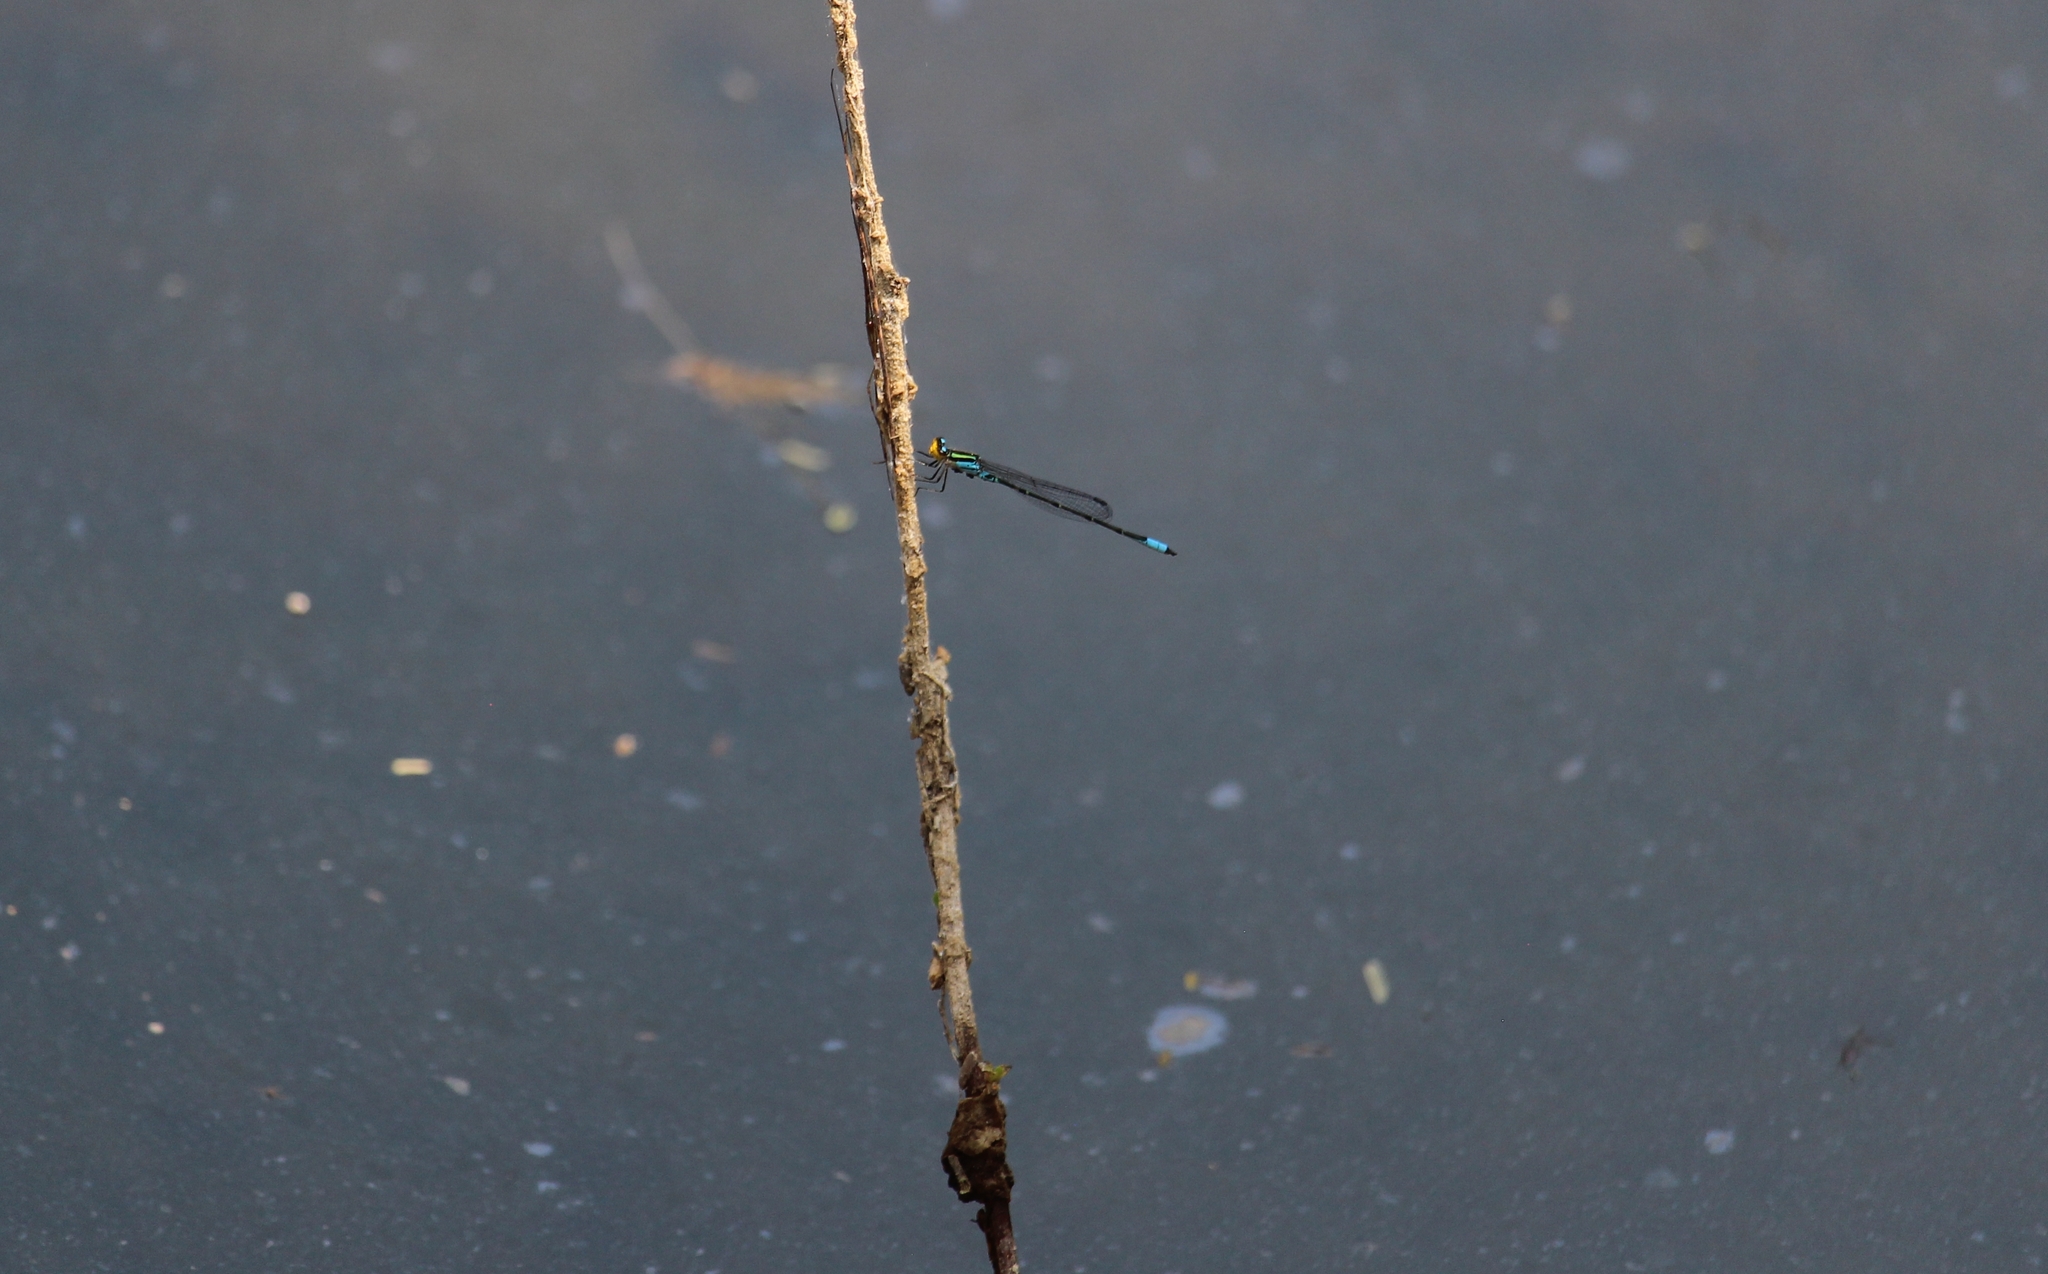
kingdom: Animalia
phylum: Arthropoda
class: Insecta
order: Odonata
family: Coenagrionidae
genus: Neoerythromma
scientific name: Neoerythromma cultellatum
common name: Caribbean yellowface
